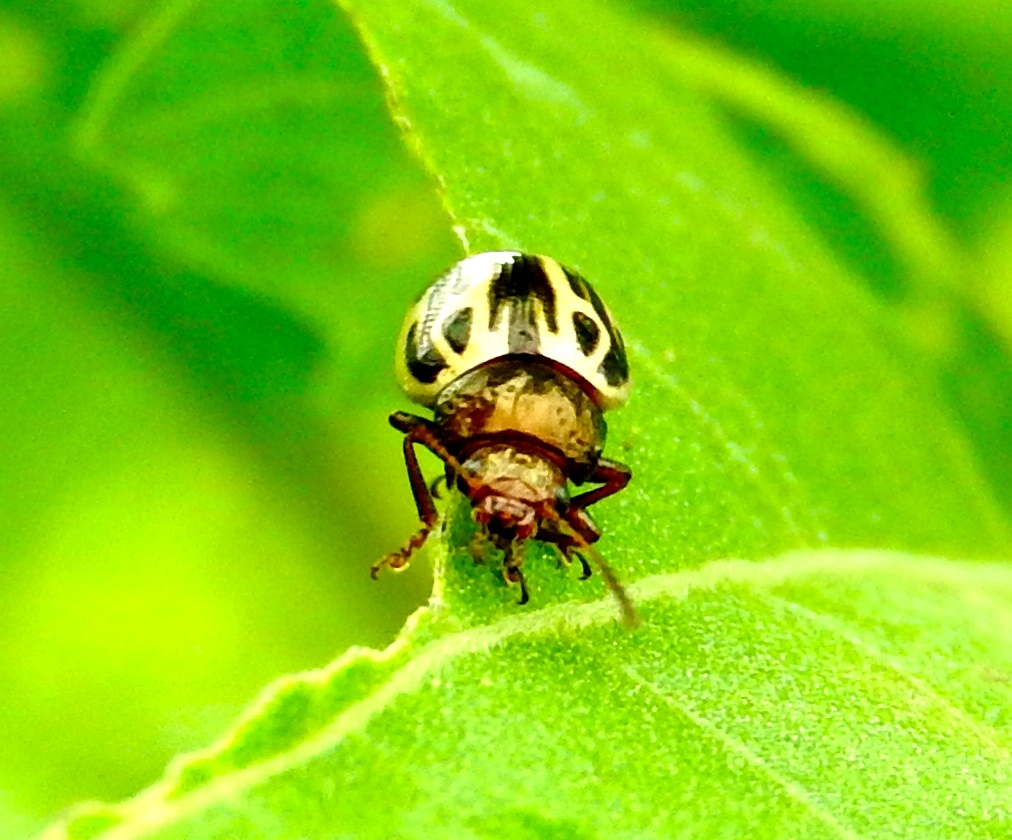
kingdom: Animalia
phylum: Arthropoda
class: Insecta
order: Coleoptera
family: Chrysomelidae
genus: Zygogramma
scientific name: Zygogramma
